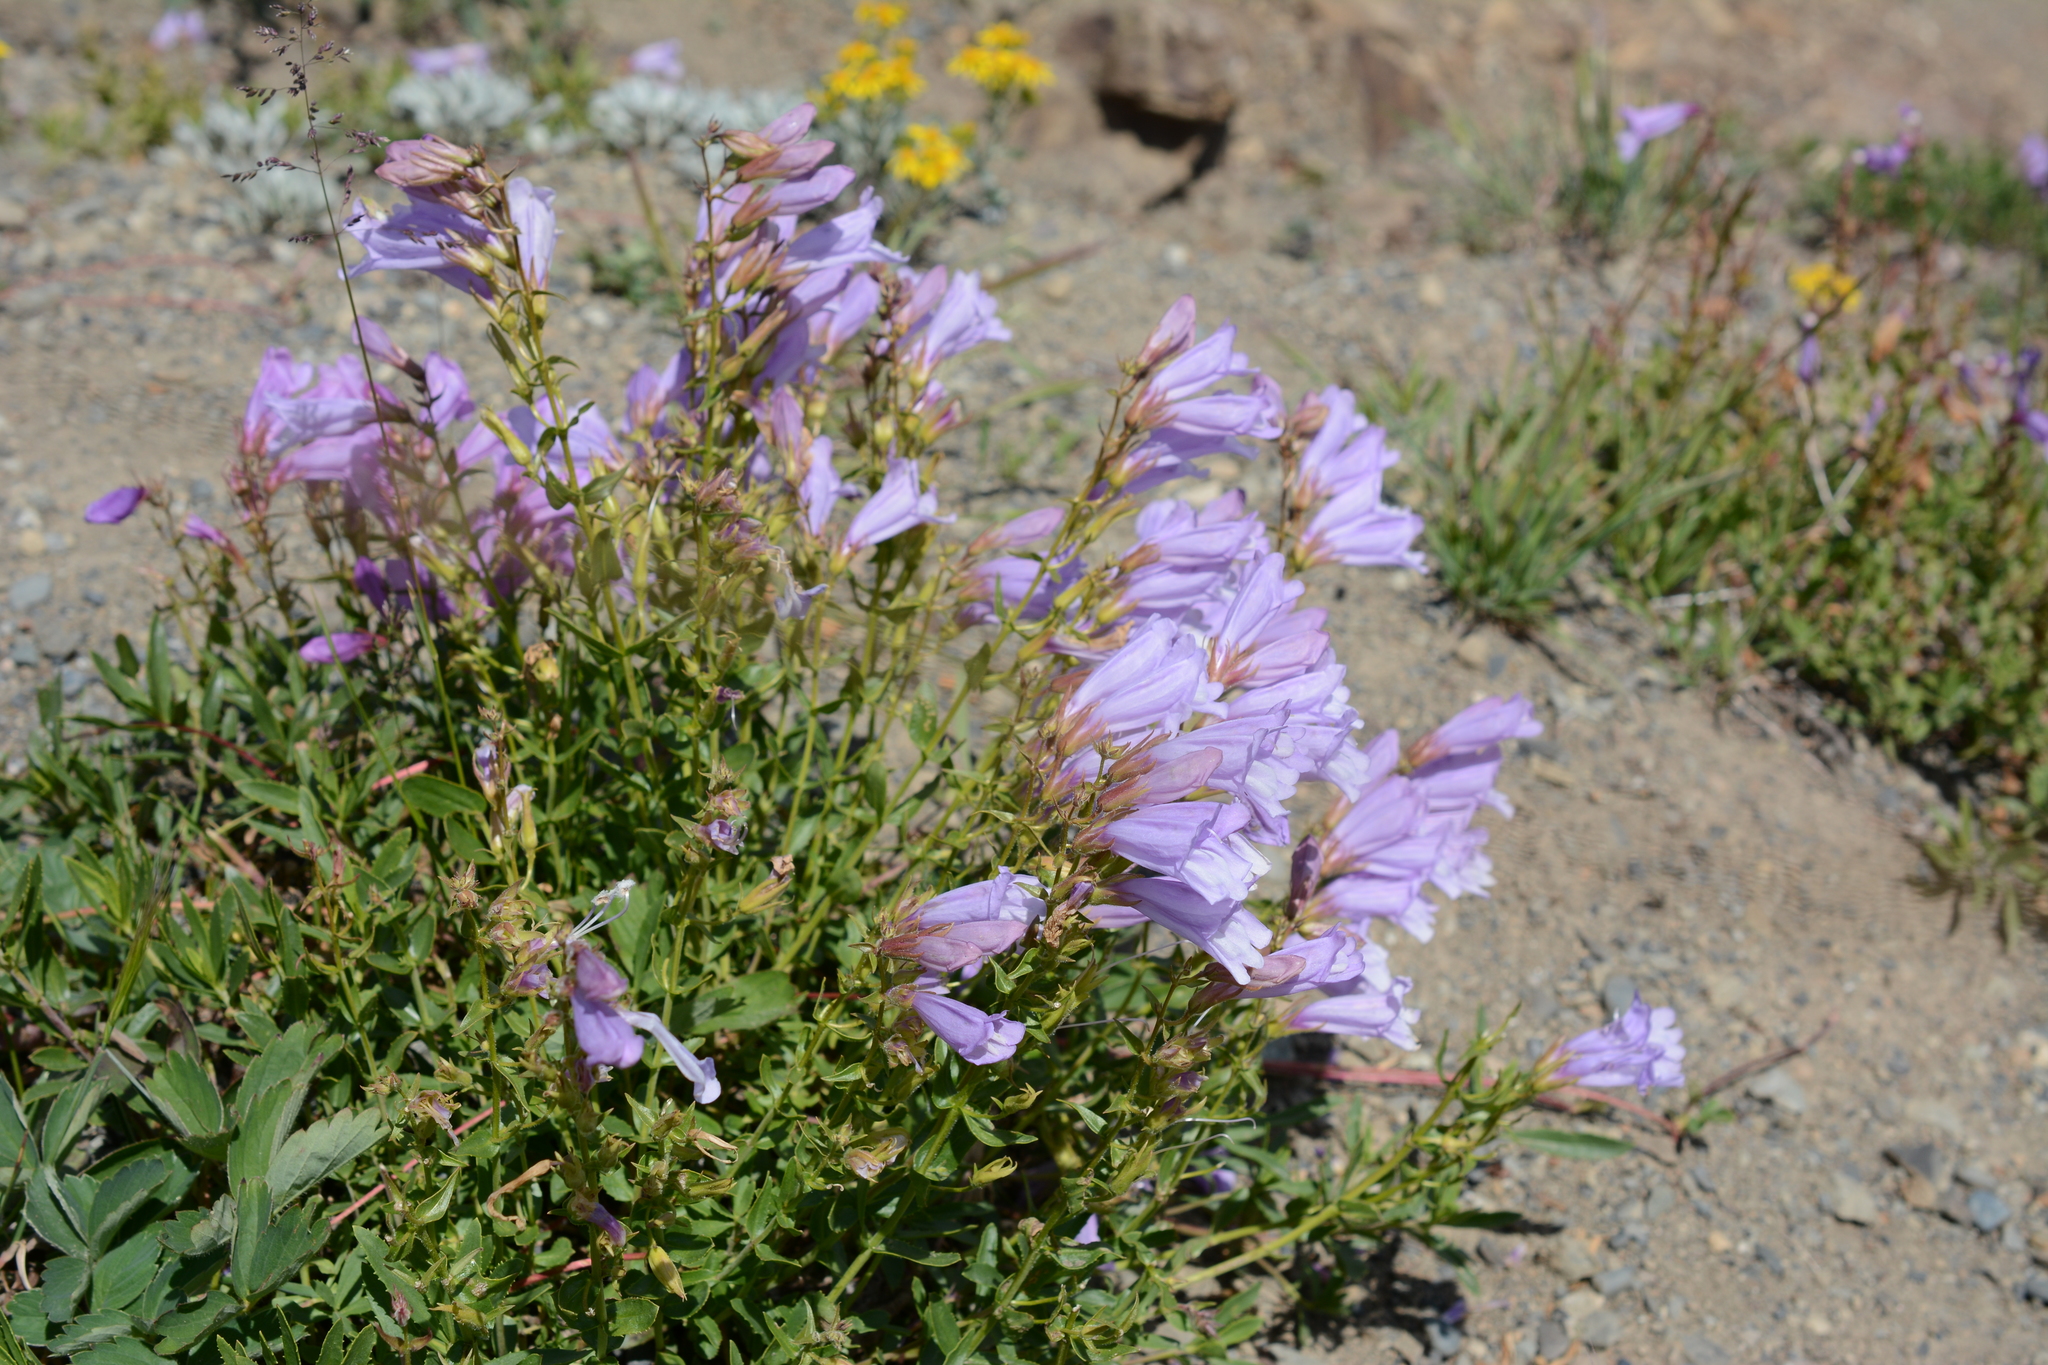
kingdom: Plantae
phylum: Tracheophyta
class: Magnoliopsida
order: Lamiales
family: Plantaginaceae
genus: Penstemon
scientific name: Penstemon fruticosus
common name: Bush penstemon
